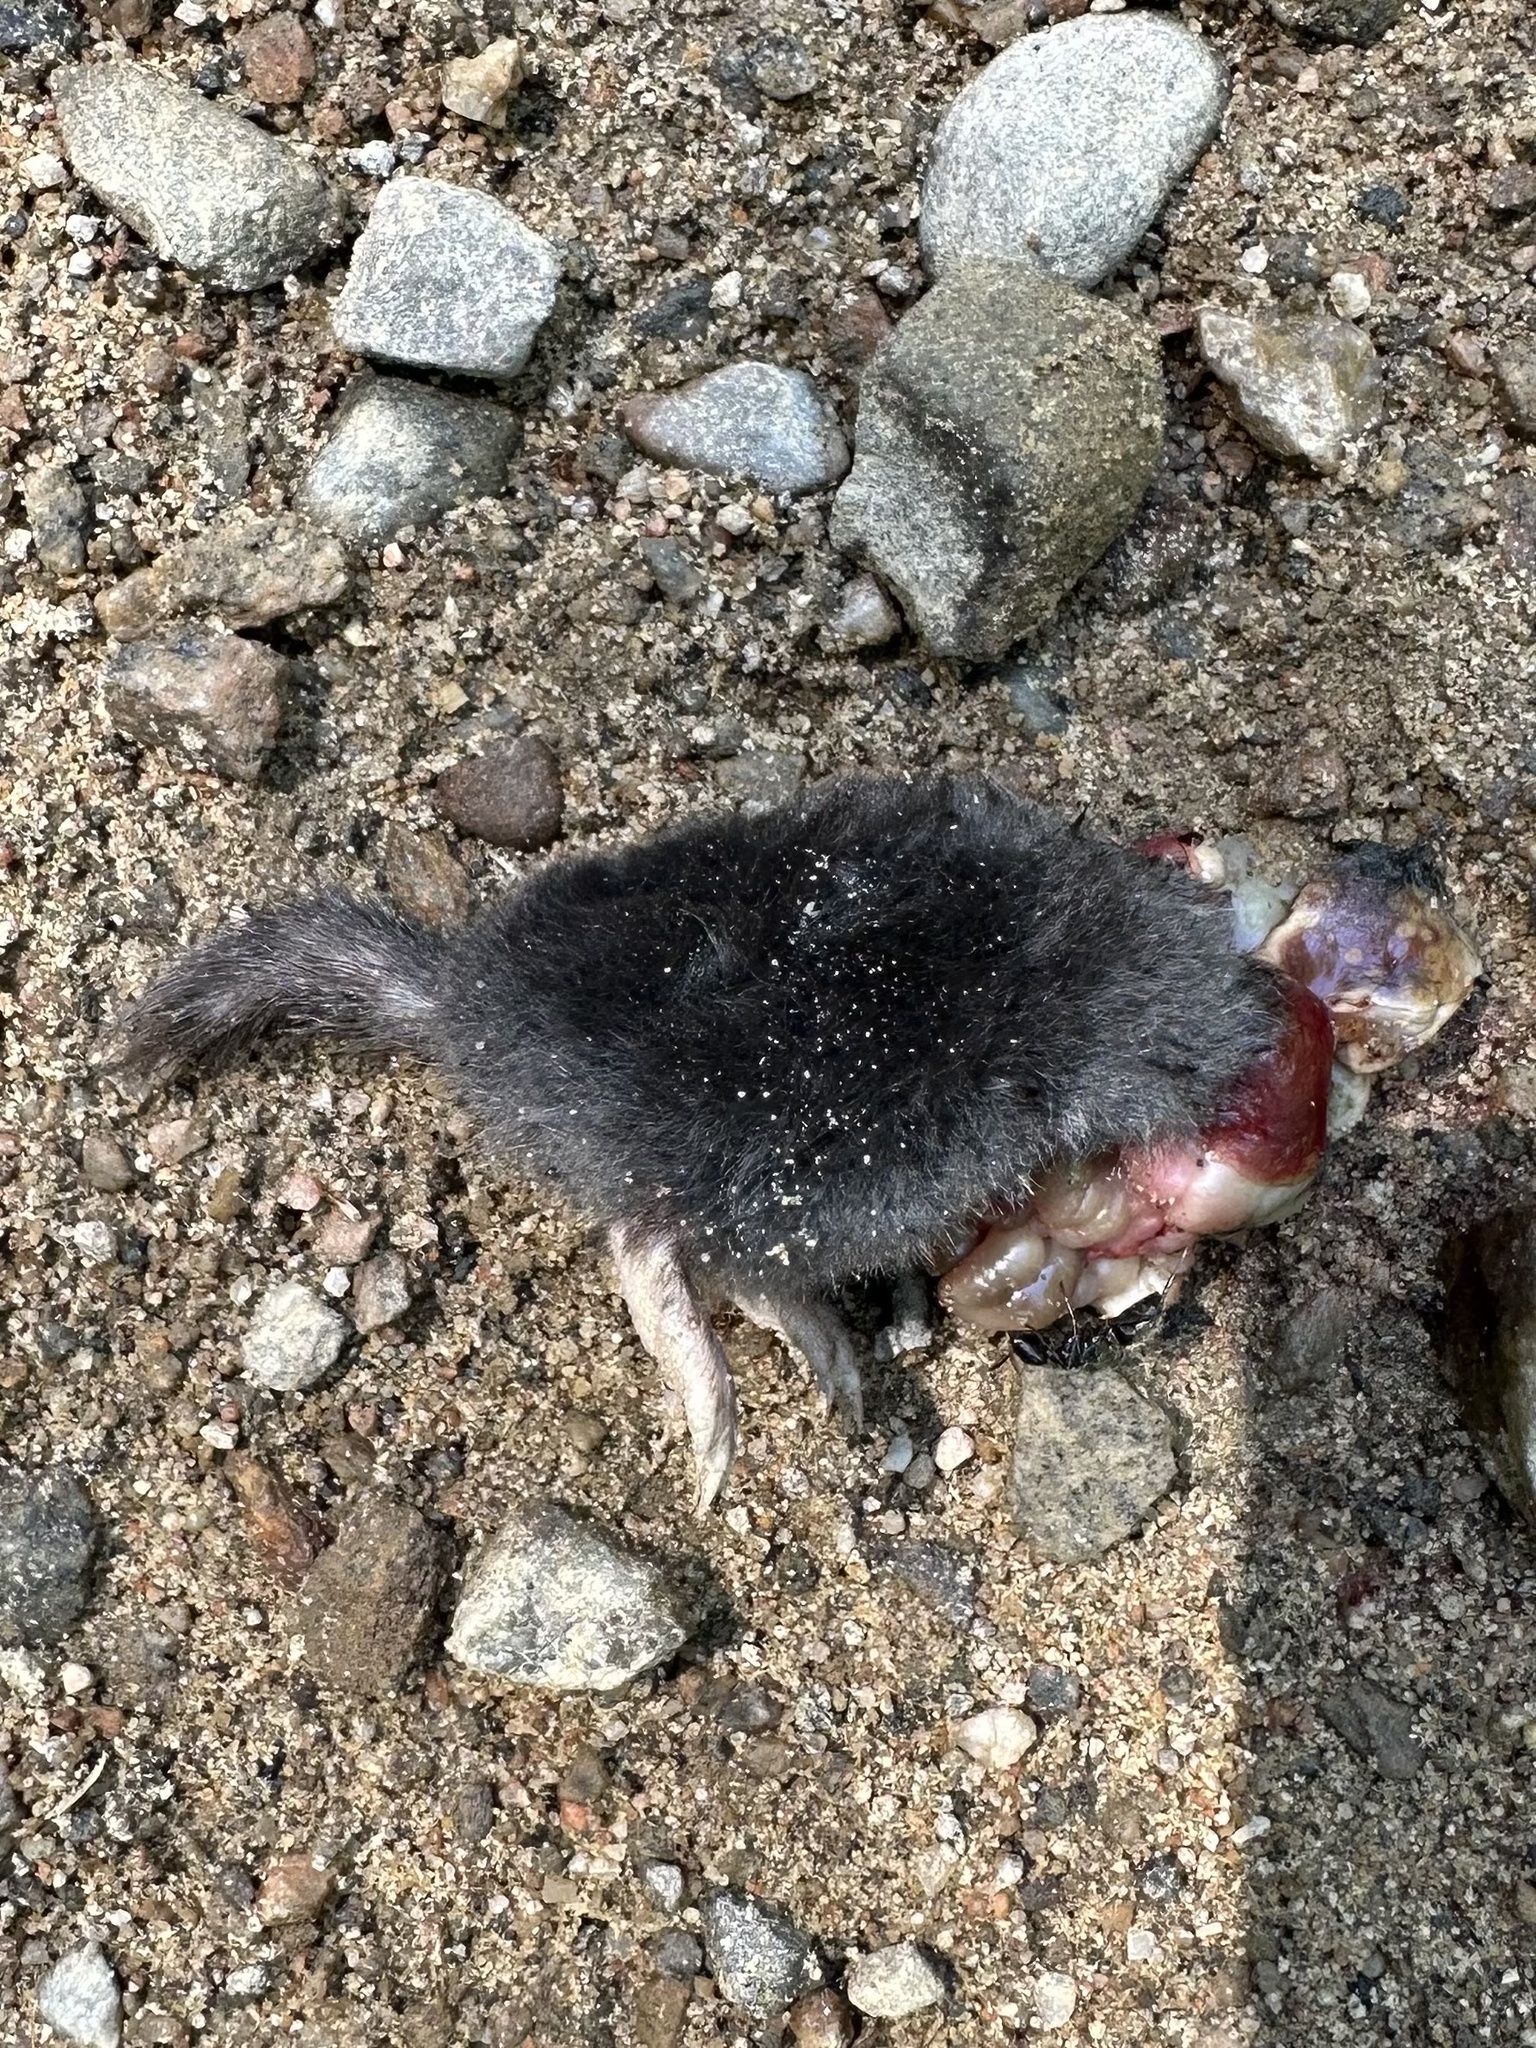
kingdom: Animalia
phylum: Chordata
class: Mammalia
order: Soricomorpha
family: Talpidae
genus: Parascalops
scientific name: Parascalops breweri
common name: Hairy-tailed mole
